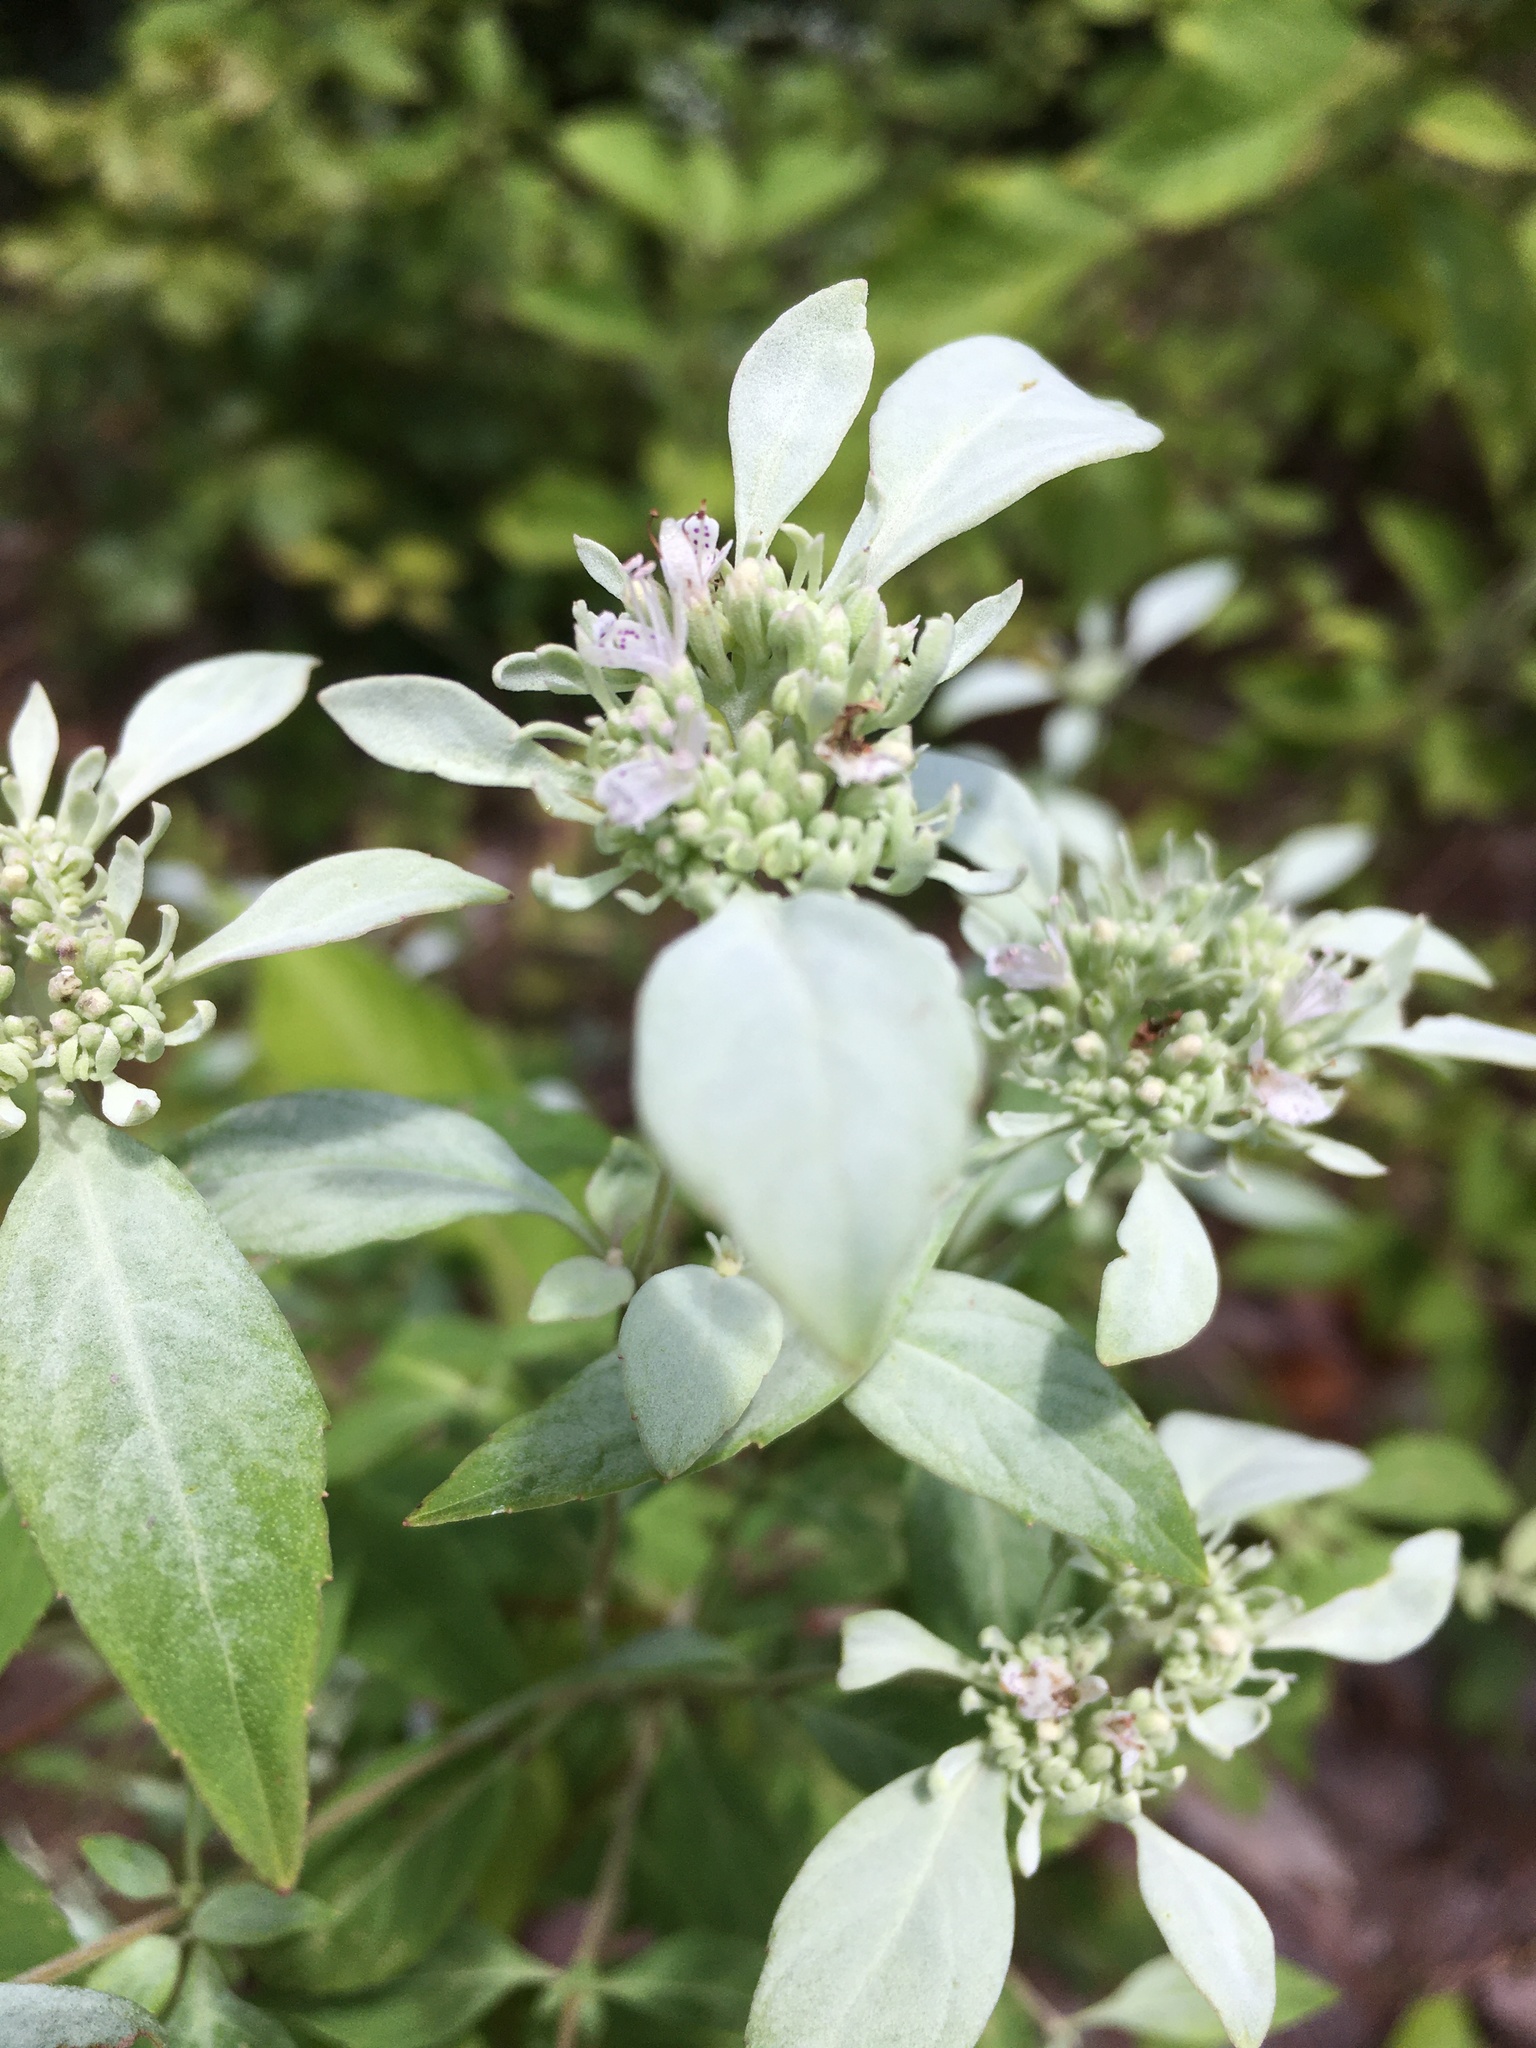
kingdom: Plantae
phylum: Tracheophyta
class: Magnoliopsida
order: Lamiales
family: Lamiaceae
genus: Pycnanthemum
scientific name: Pycnanthemum albescens
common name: White-leaf mountain-mint
